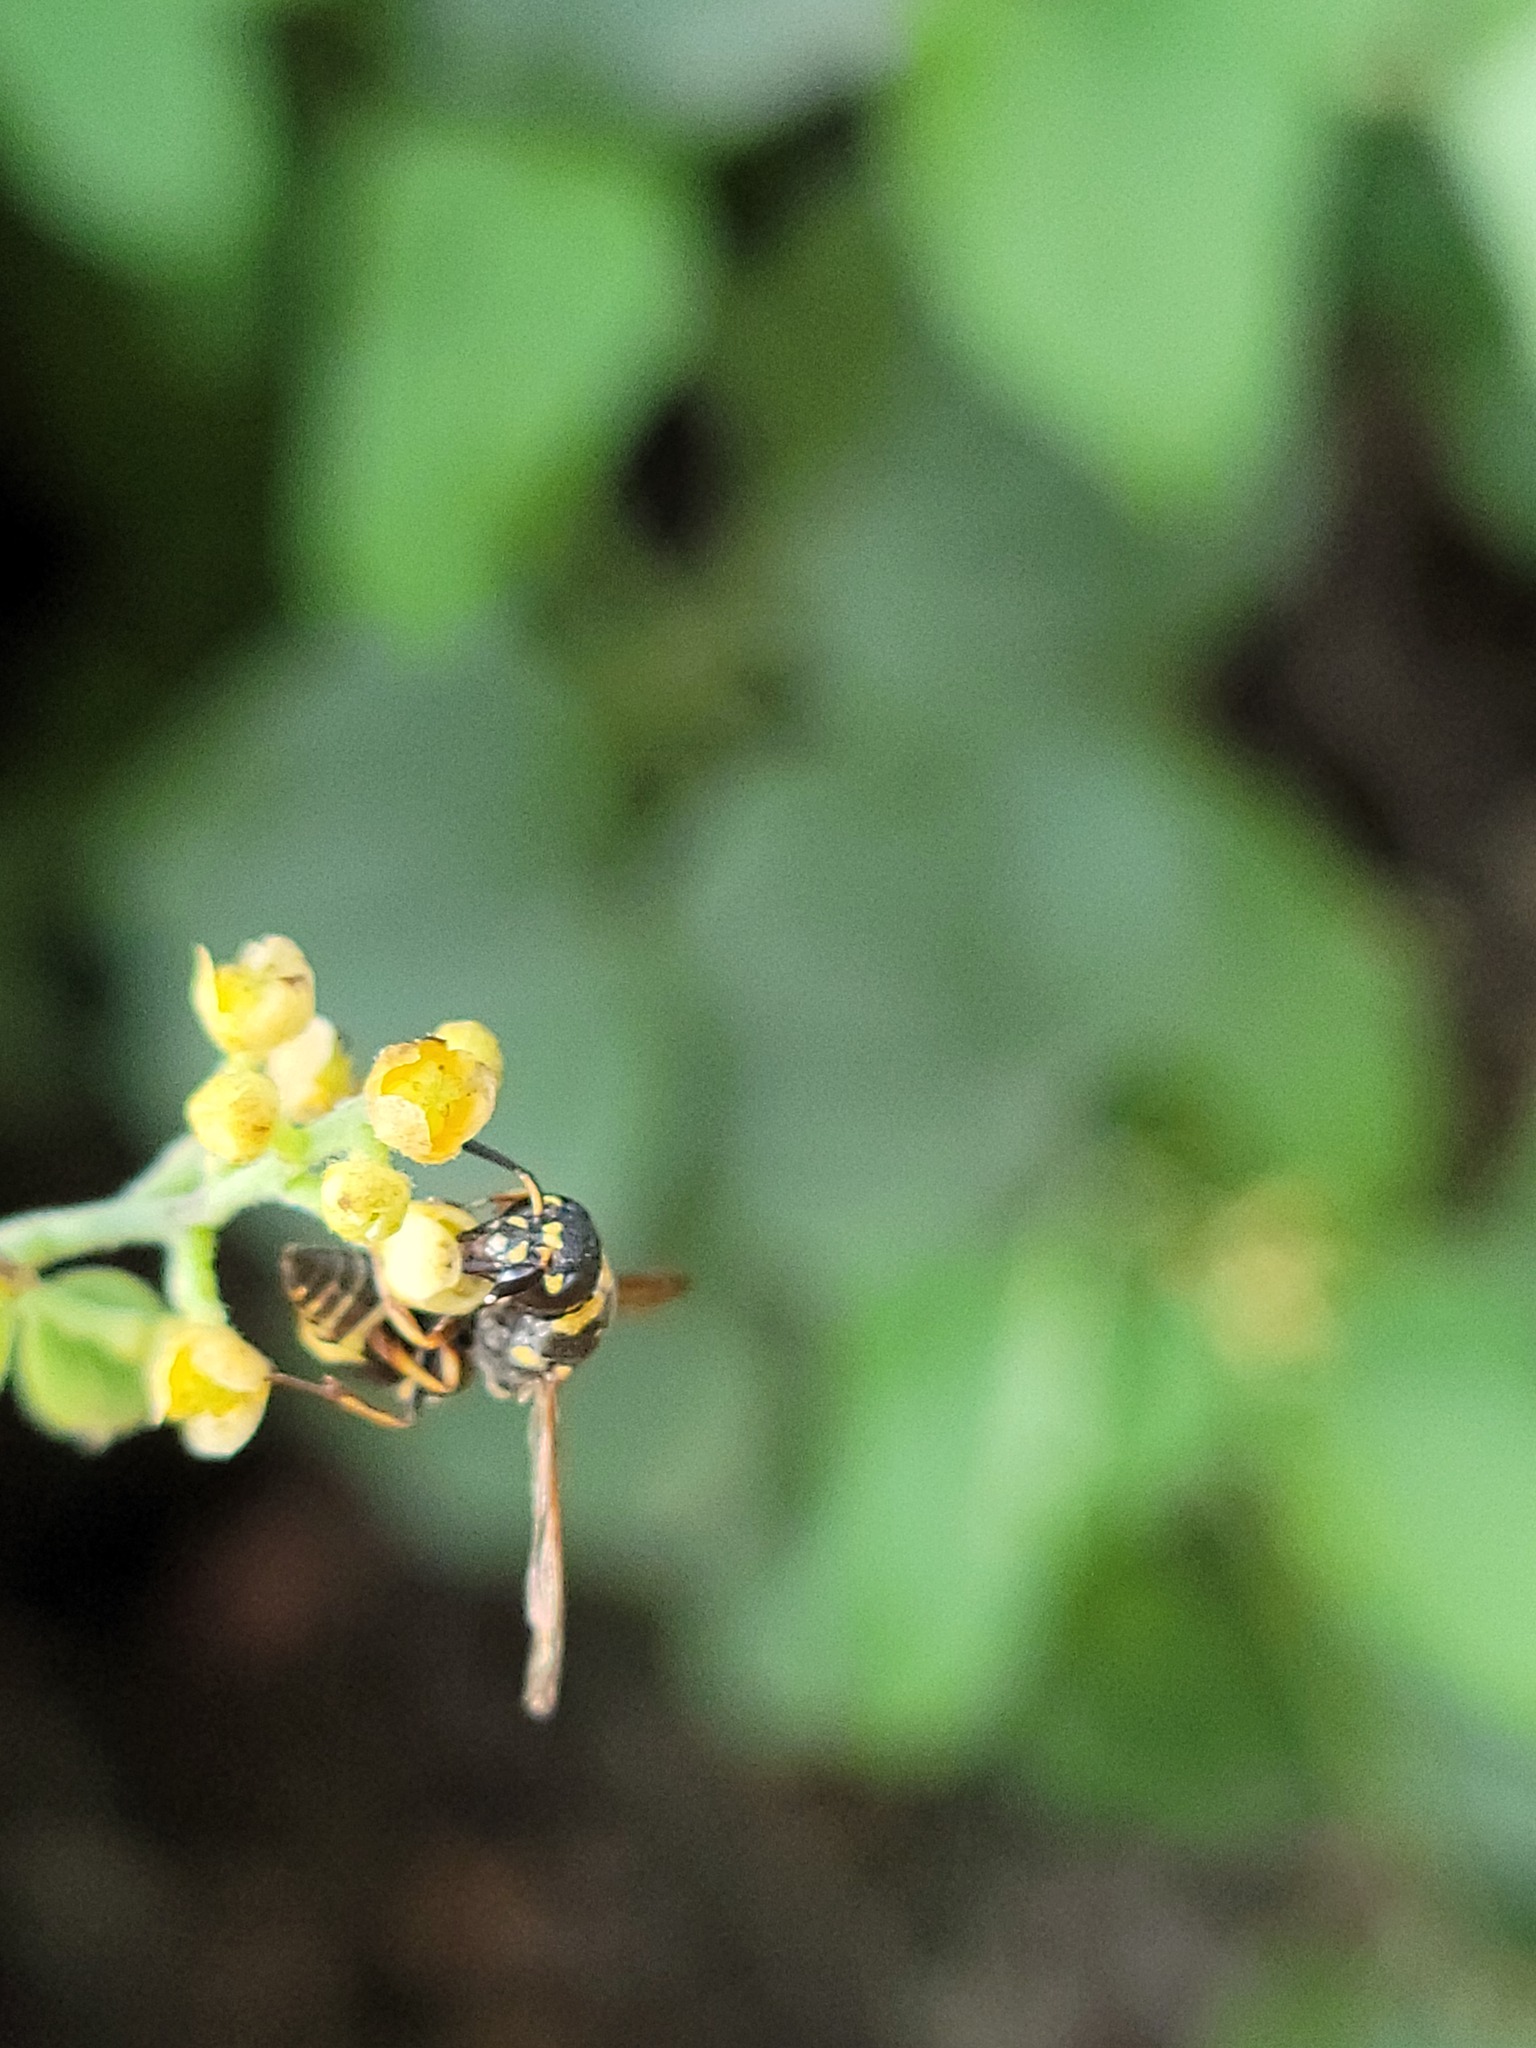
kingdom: Animalia
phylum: Arthropoda
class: Insecta
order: Hymenoptera
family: Eumenidae
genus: Euodynerus
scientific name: Euodynerus barberi
